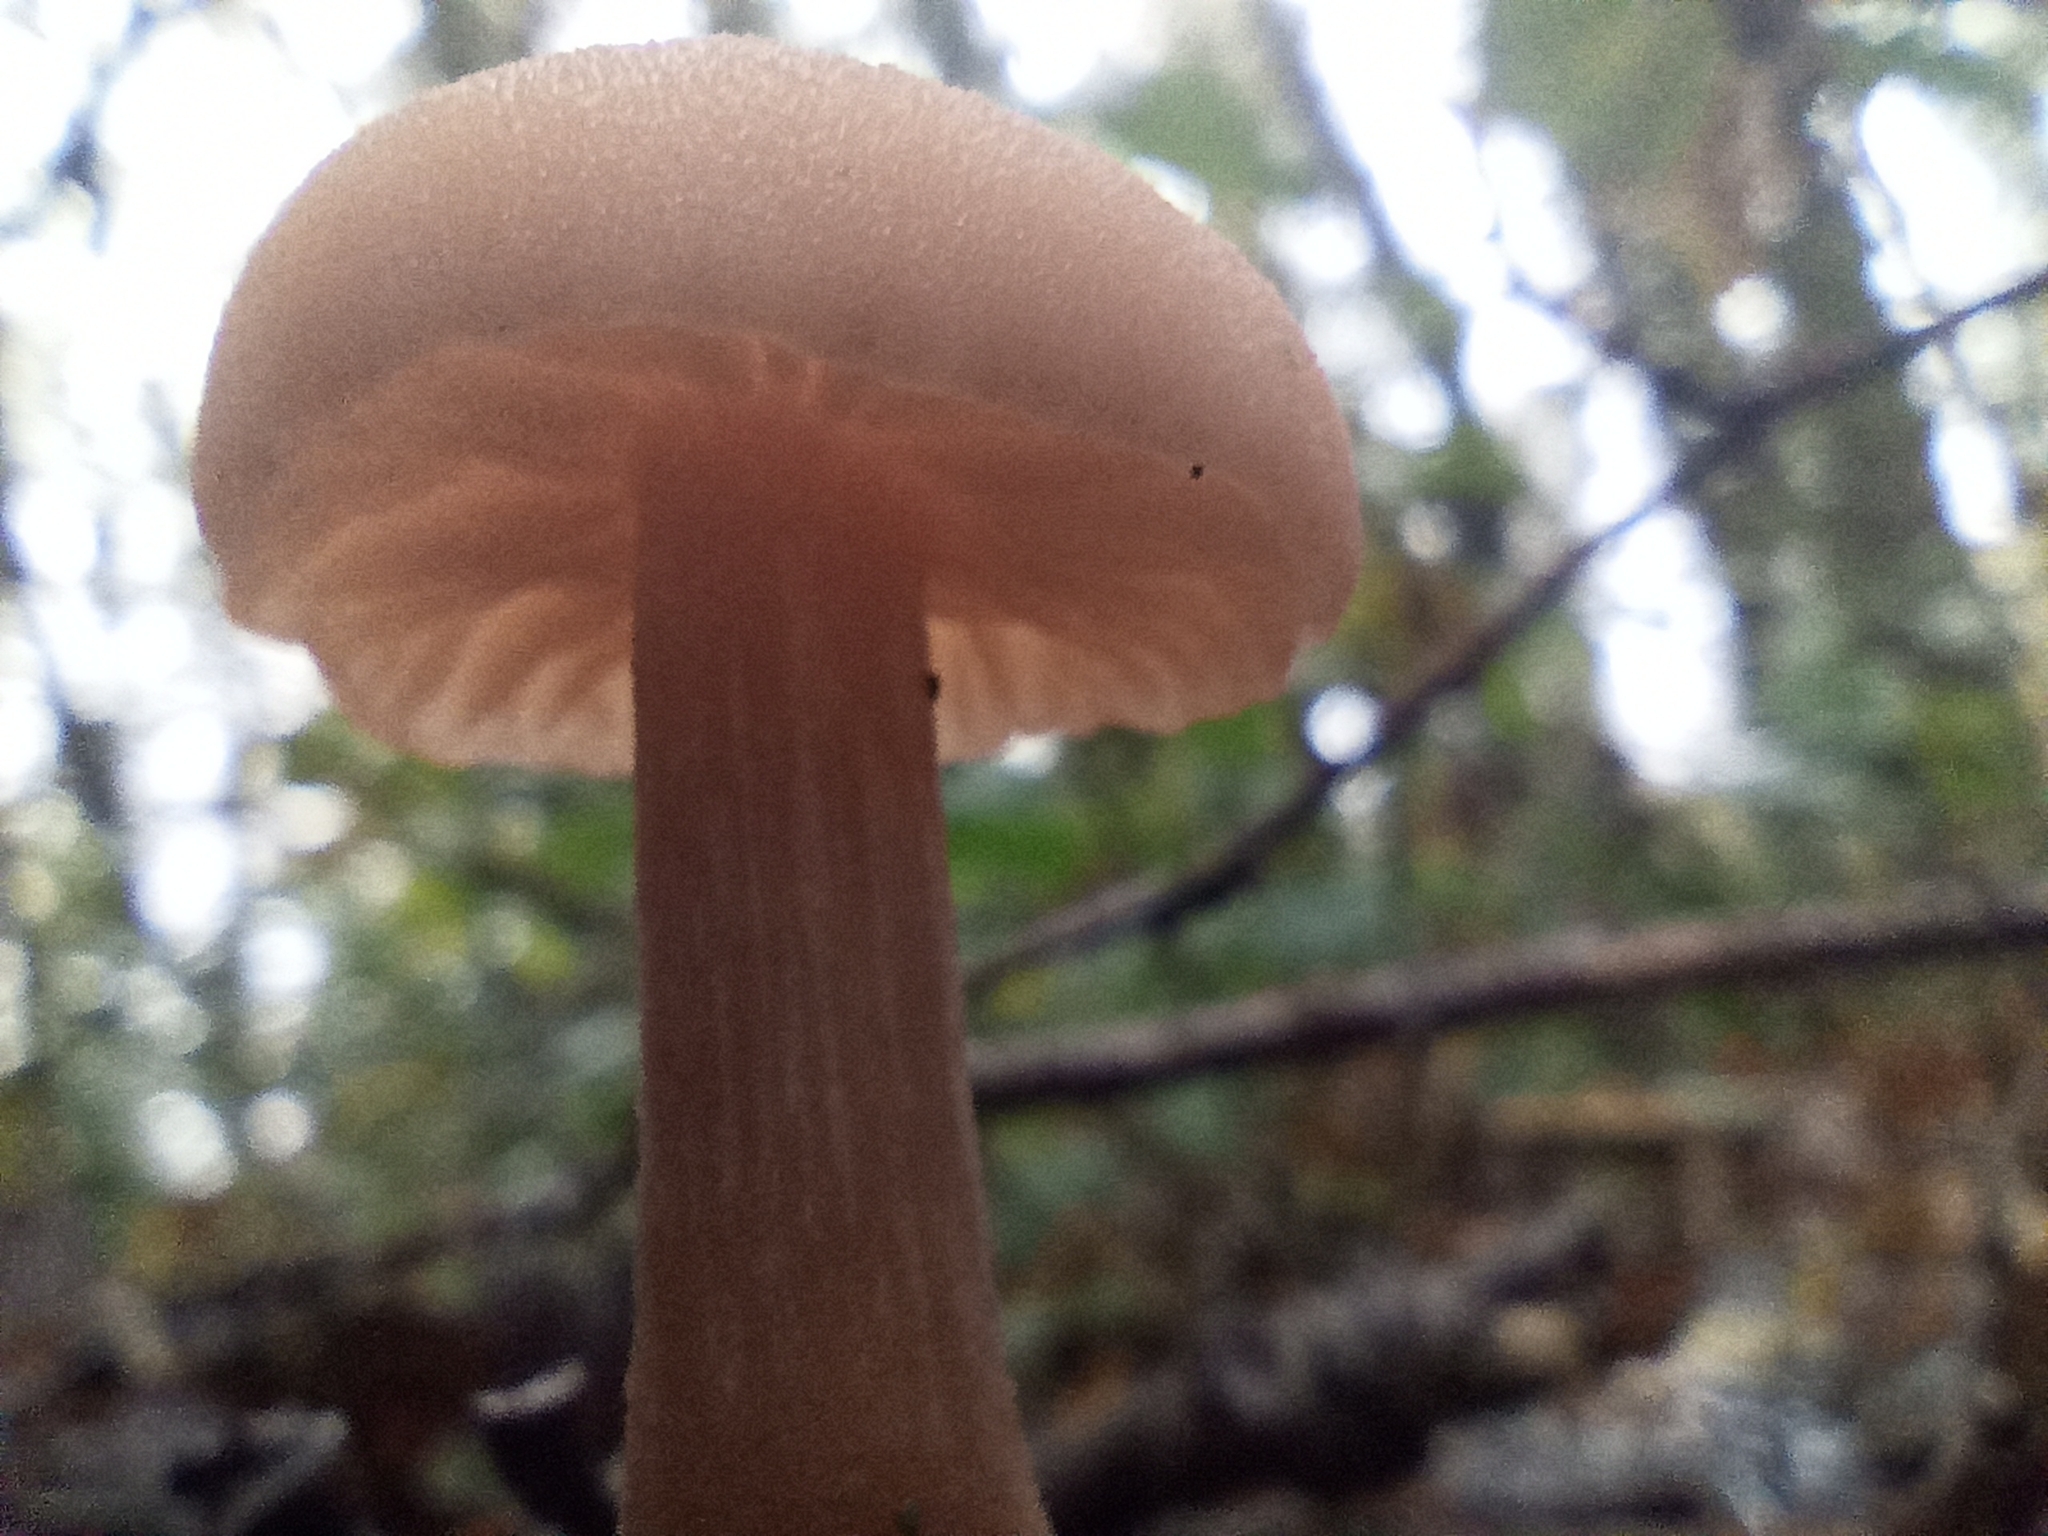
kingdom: Fungi
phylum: Basidiomycota
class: Agaricomycetes
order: Agaricales
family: Hydnangiaceae
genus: Laccaria
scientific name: Laccaria laccata
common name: Deceiver
